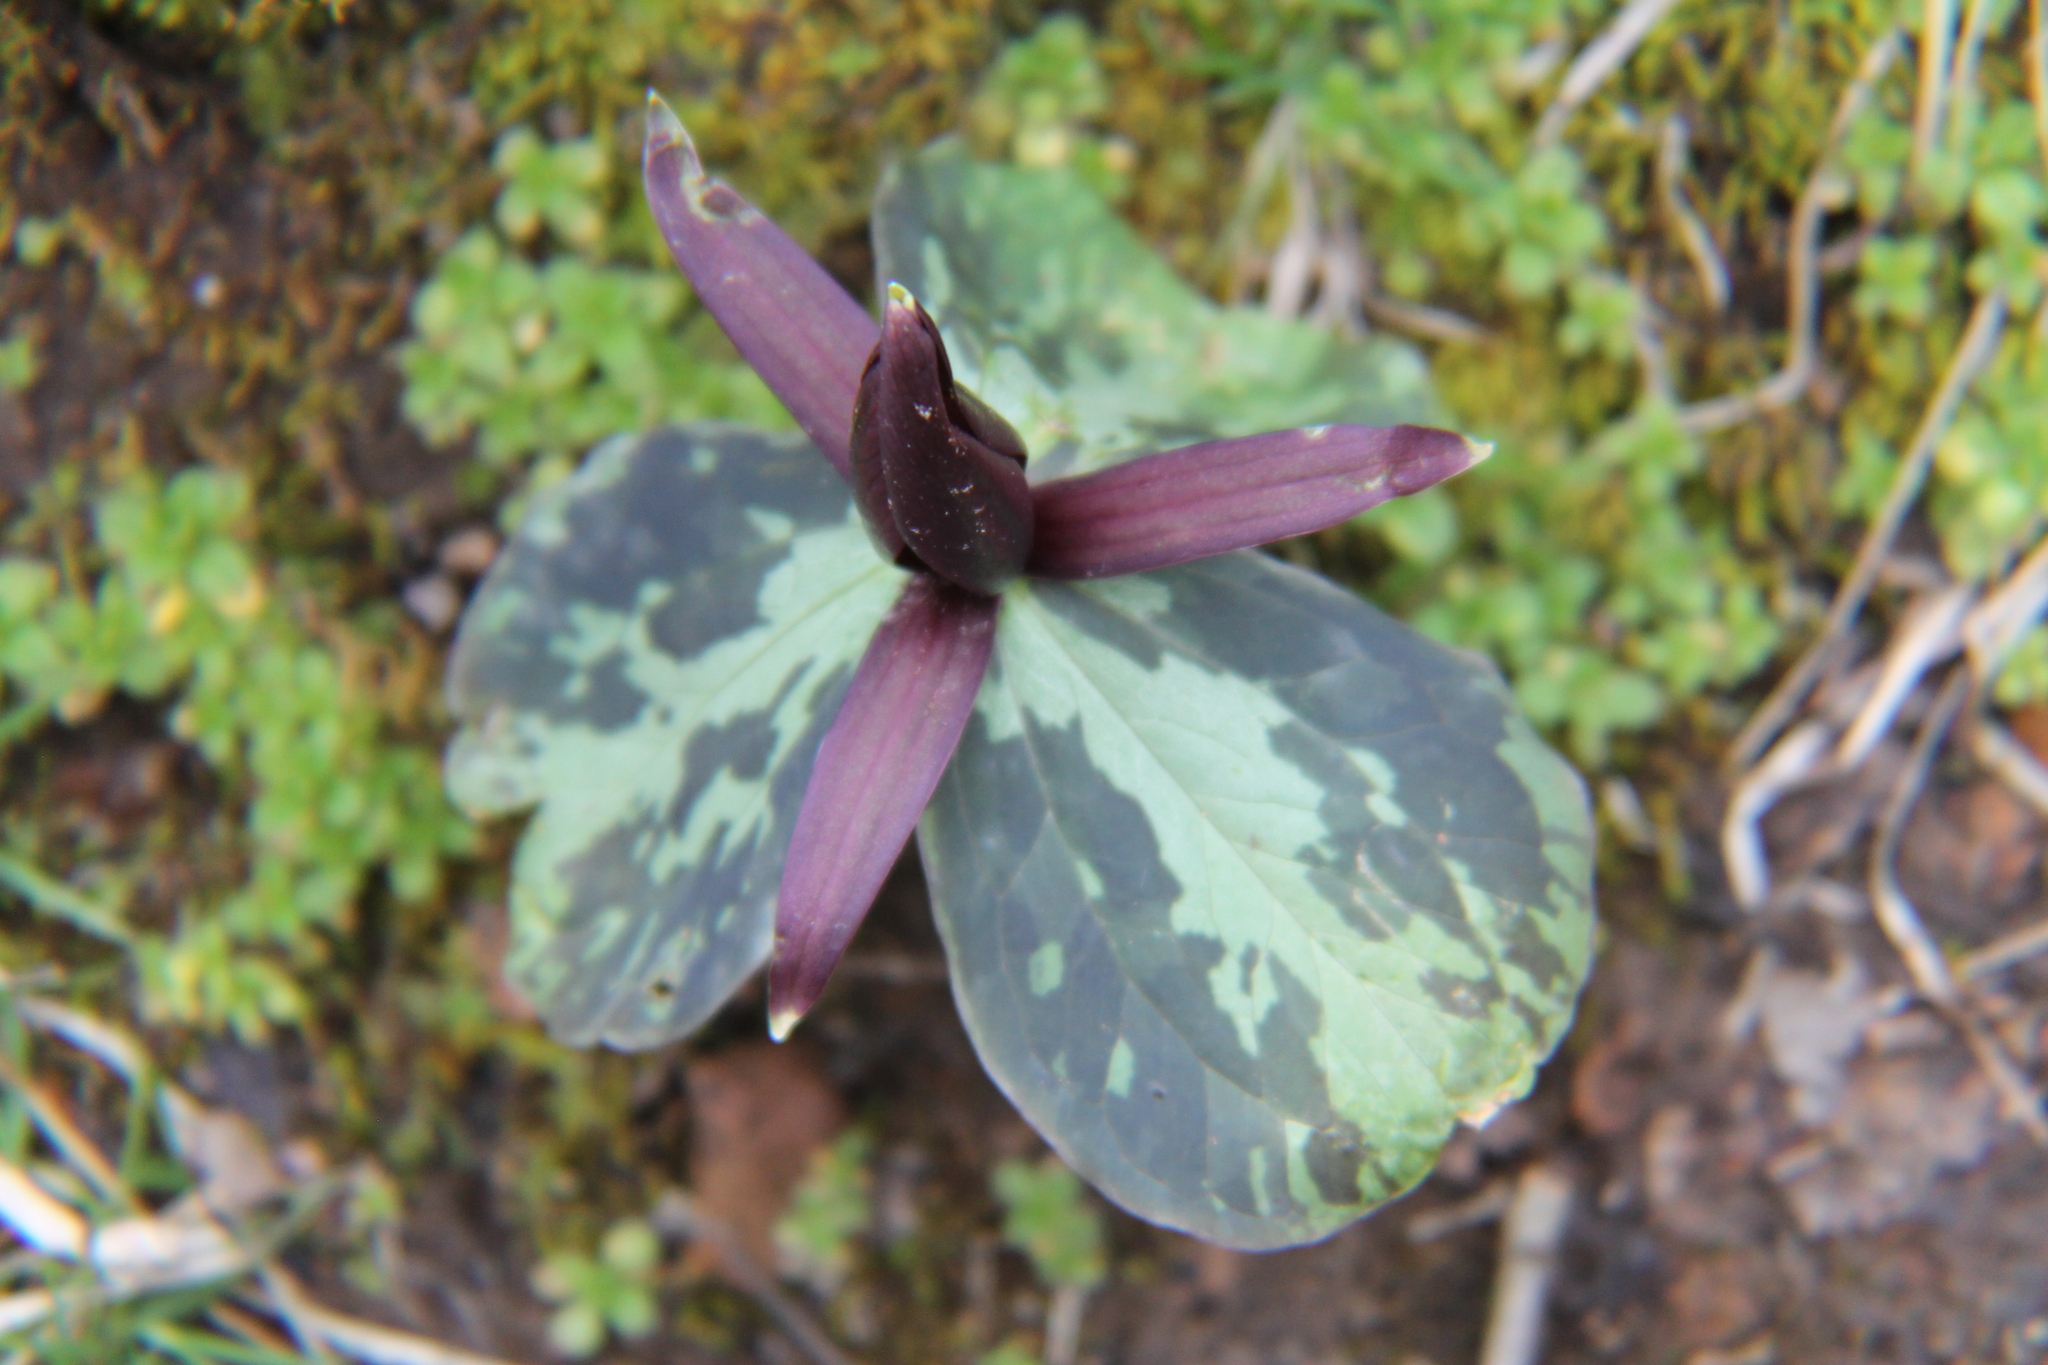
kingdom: Plantae
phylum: Tracheophyta
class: Liliopsida
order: Liliales
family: Melanthiaceae
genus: Trillium
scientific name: Trillium cuneatum
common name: Cuneate trillium
